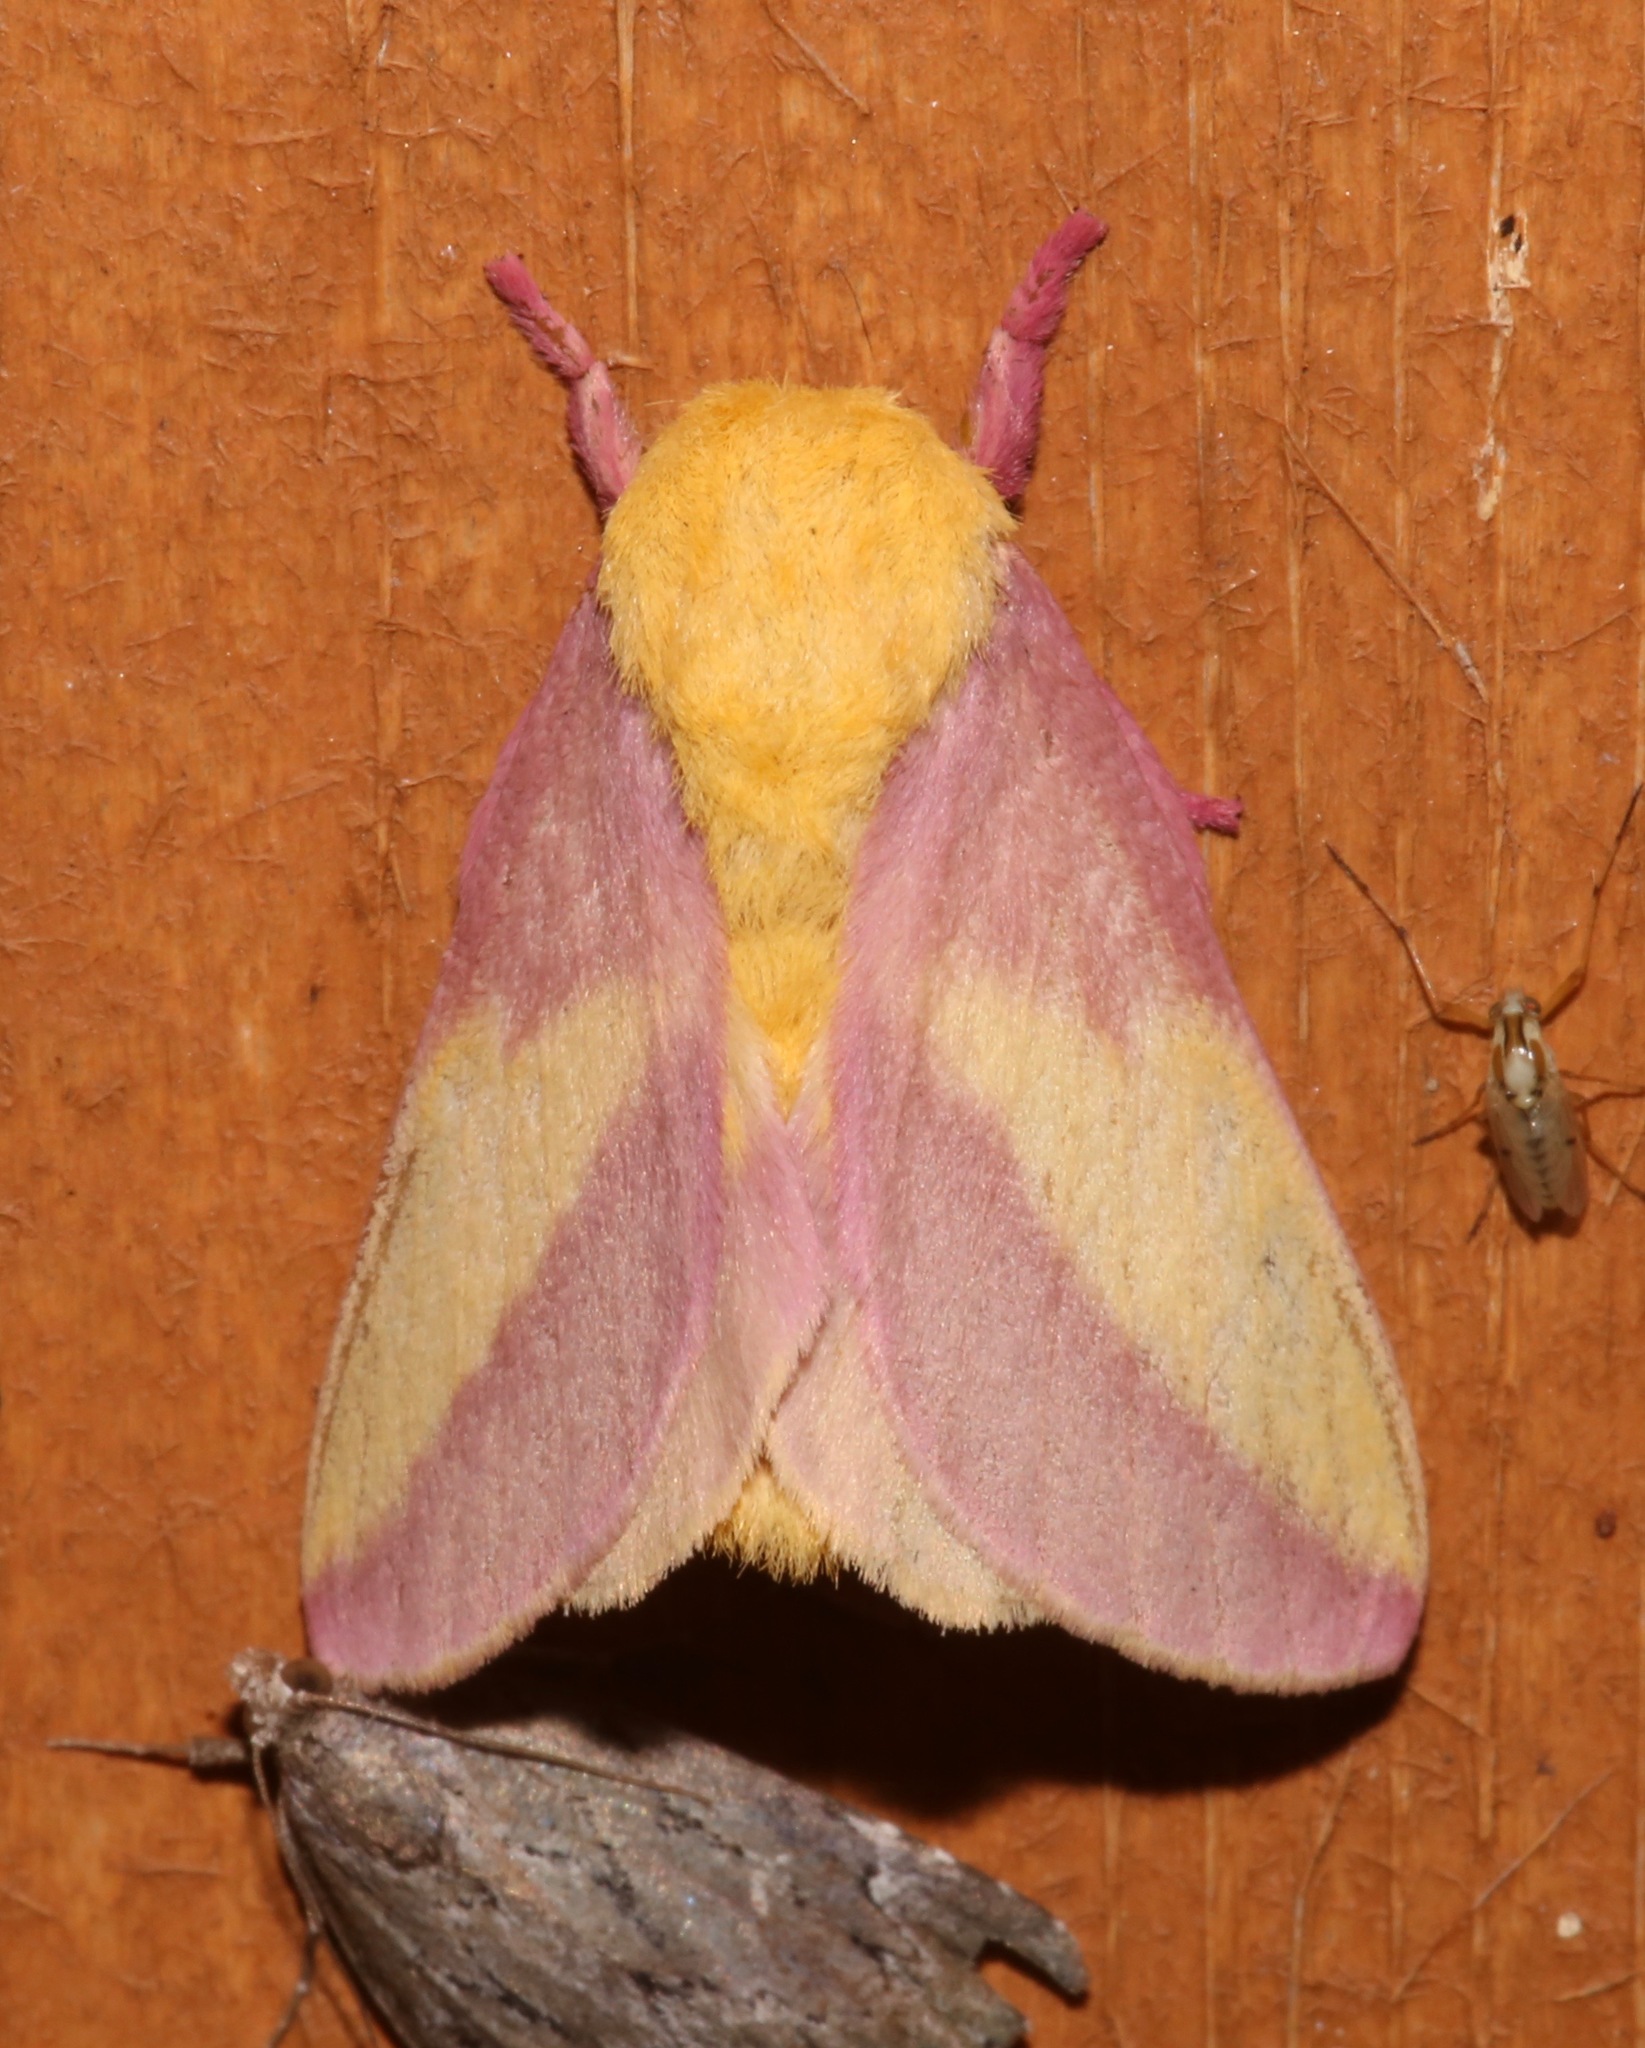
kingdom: Animalia
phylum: Arthropoda
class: Insecta
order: Lepidoptera
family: Saturniidae
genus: Dryocampa
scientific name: Dryocampa rubicunda
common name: Rosy maple moth
